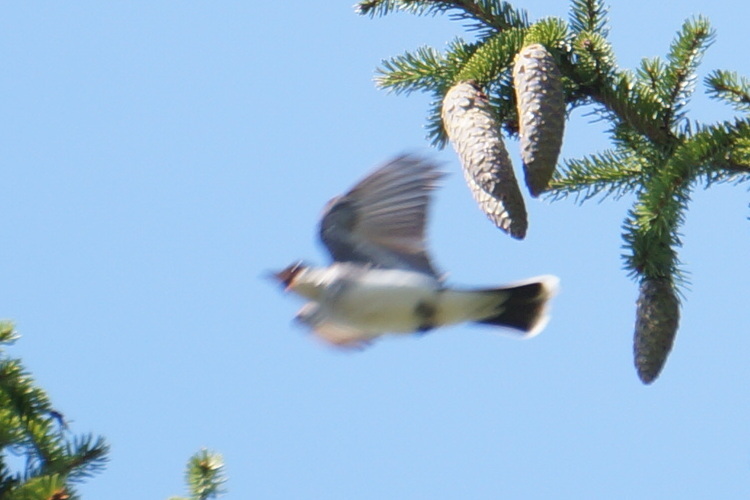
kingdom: Animalia
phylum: Chordata
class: Aves
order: Passeriformes
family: Tyrannidae
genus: Tyrannus
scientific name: Tyrannus tyrannus
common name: Eastern kingbird
